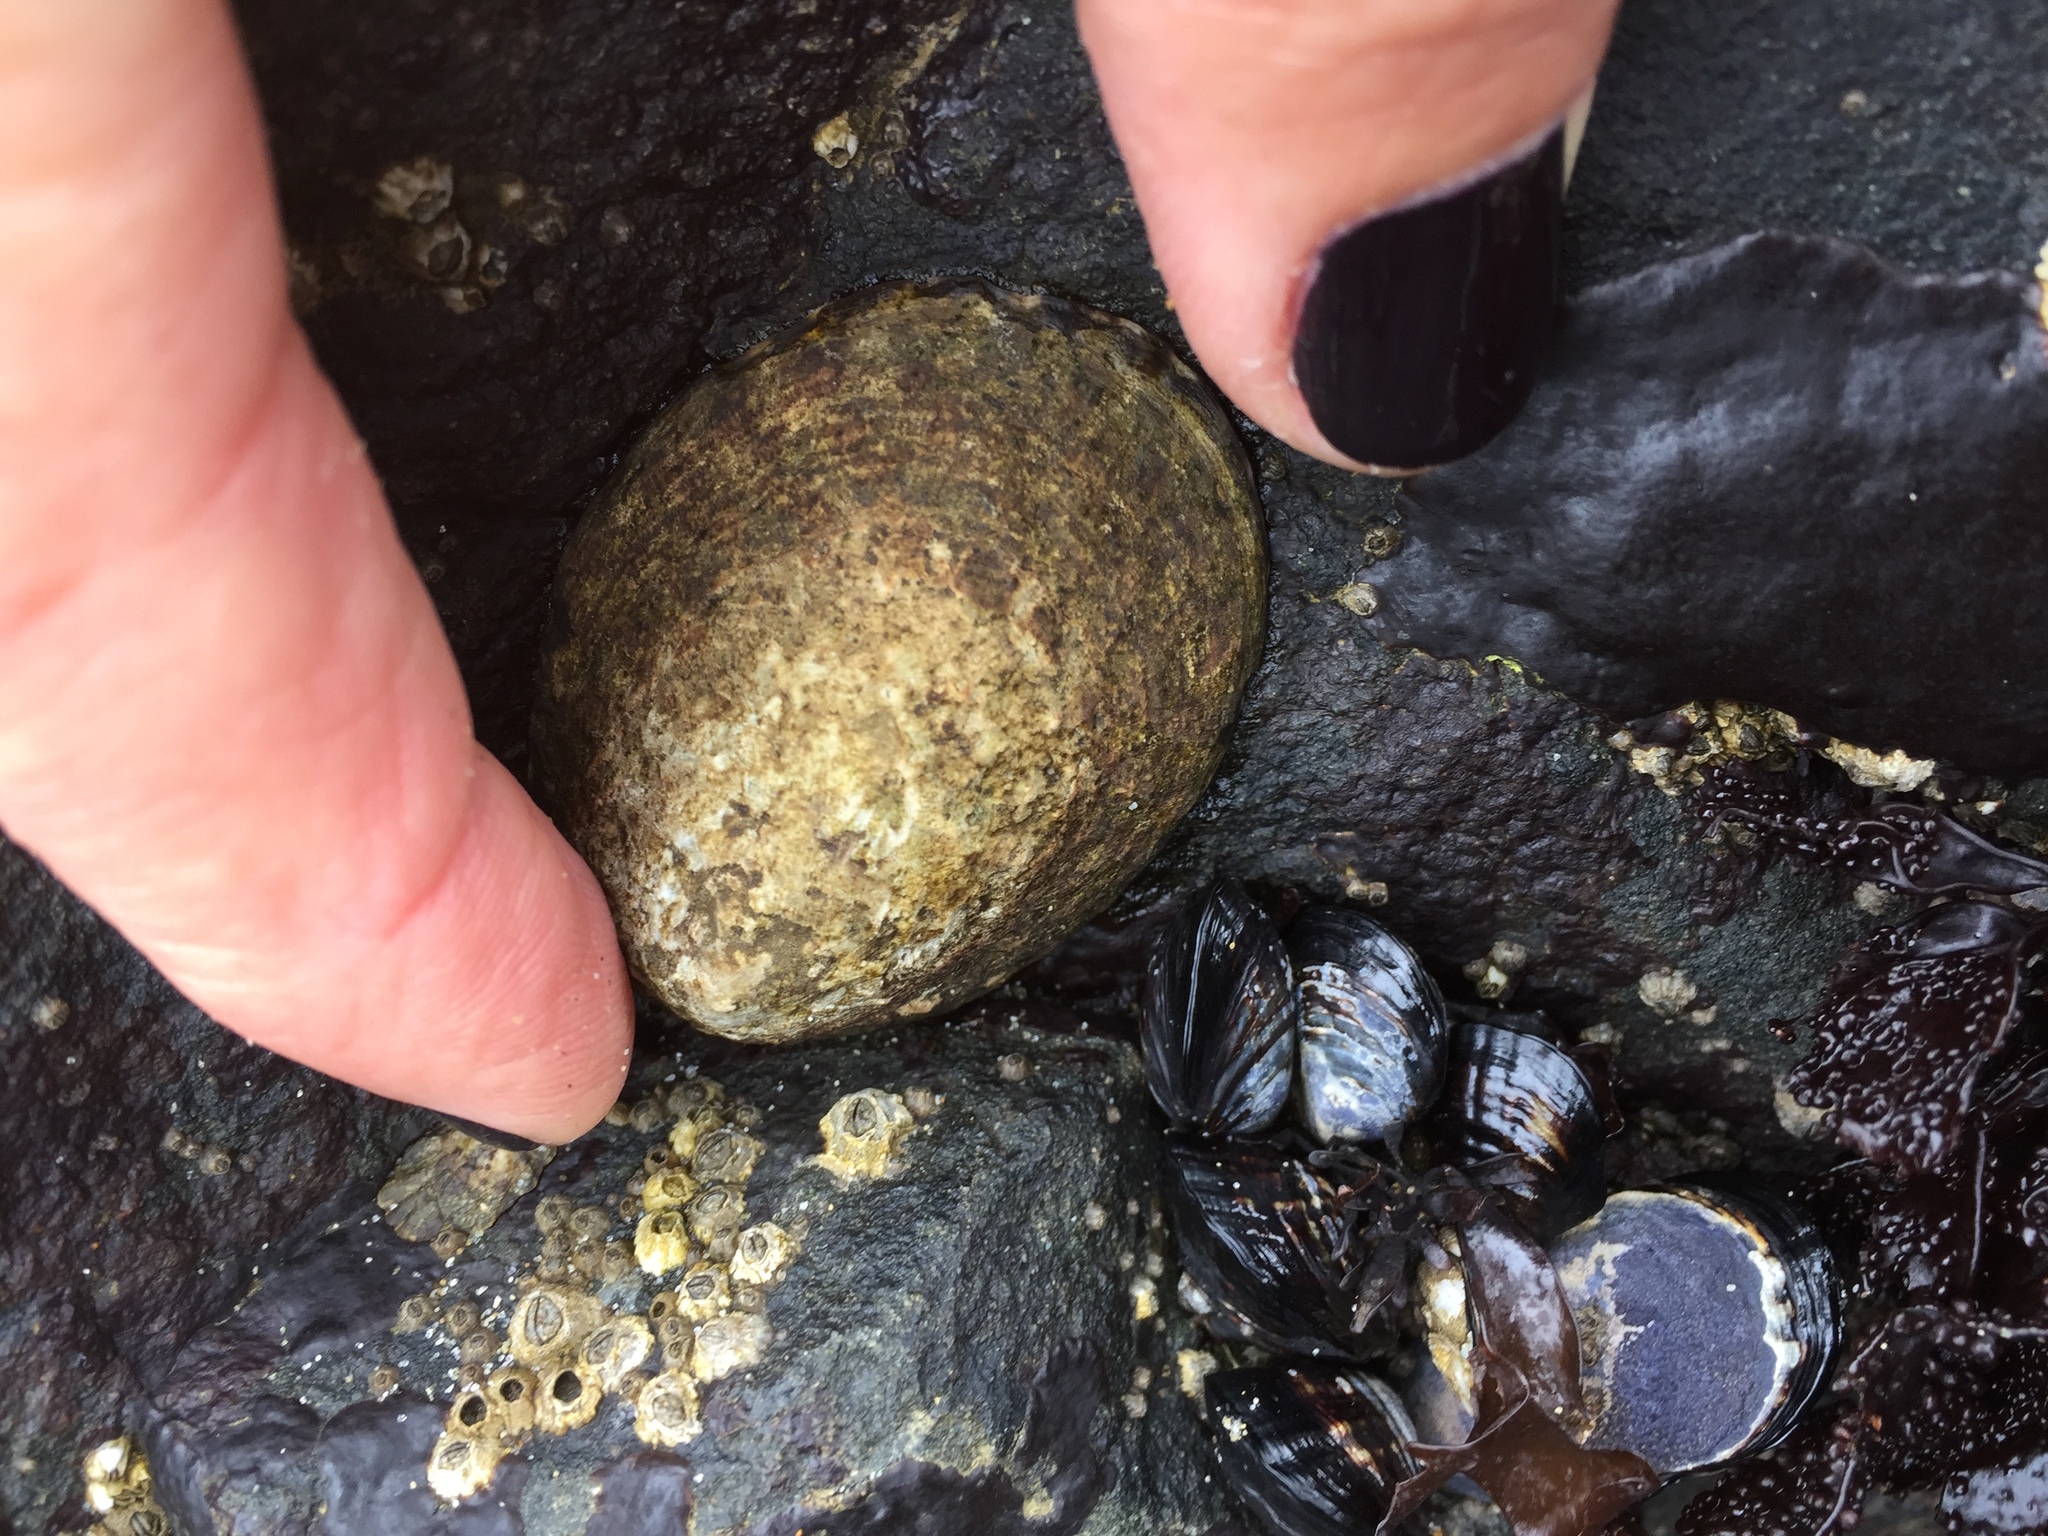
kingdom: Animalia
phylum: Mollusca
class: Gastropoda
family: Lottiidae
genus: Lottia
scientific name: Lottia gigantea
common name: Owl limpet
